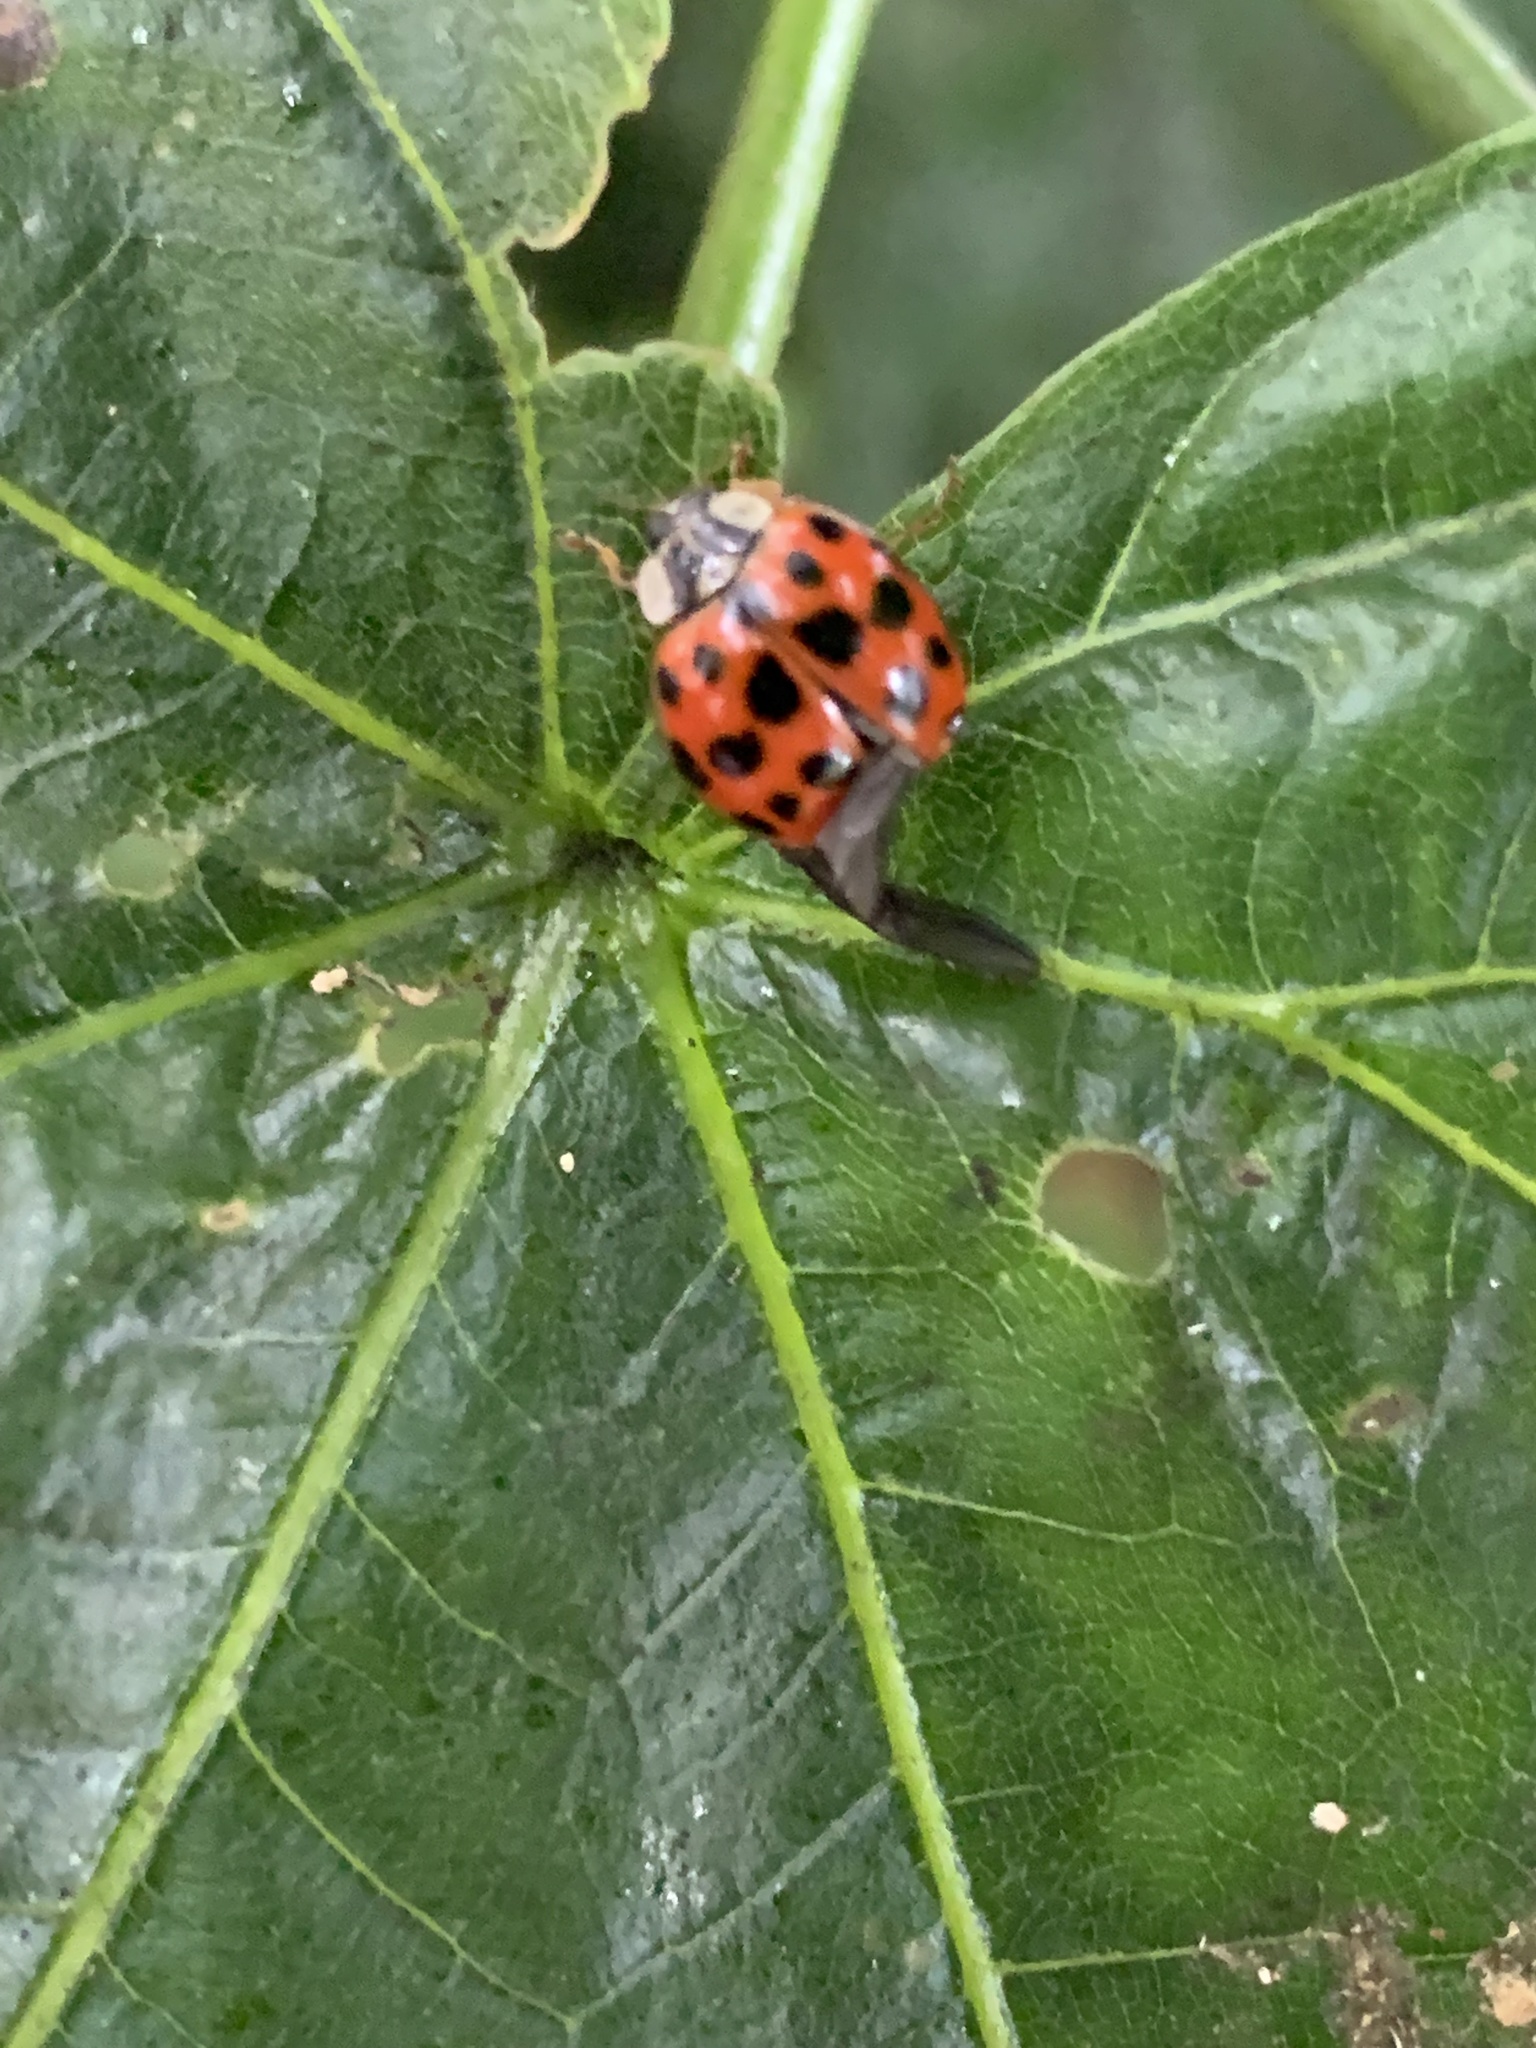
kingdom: Animalia
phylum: Arthropoda
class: Insecta
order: Coleoptera
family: Coccinellidae
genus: Harmonia
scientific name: Harmonia axyridis
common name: Harlequin ladybird
